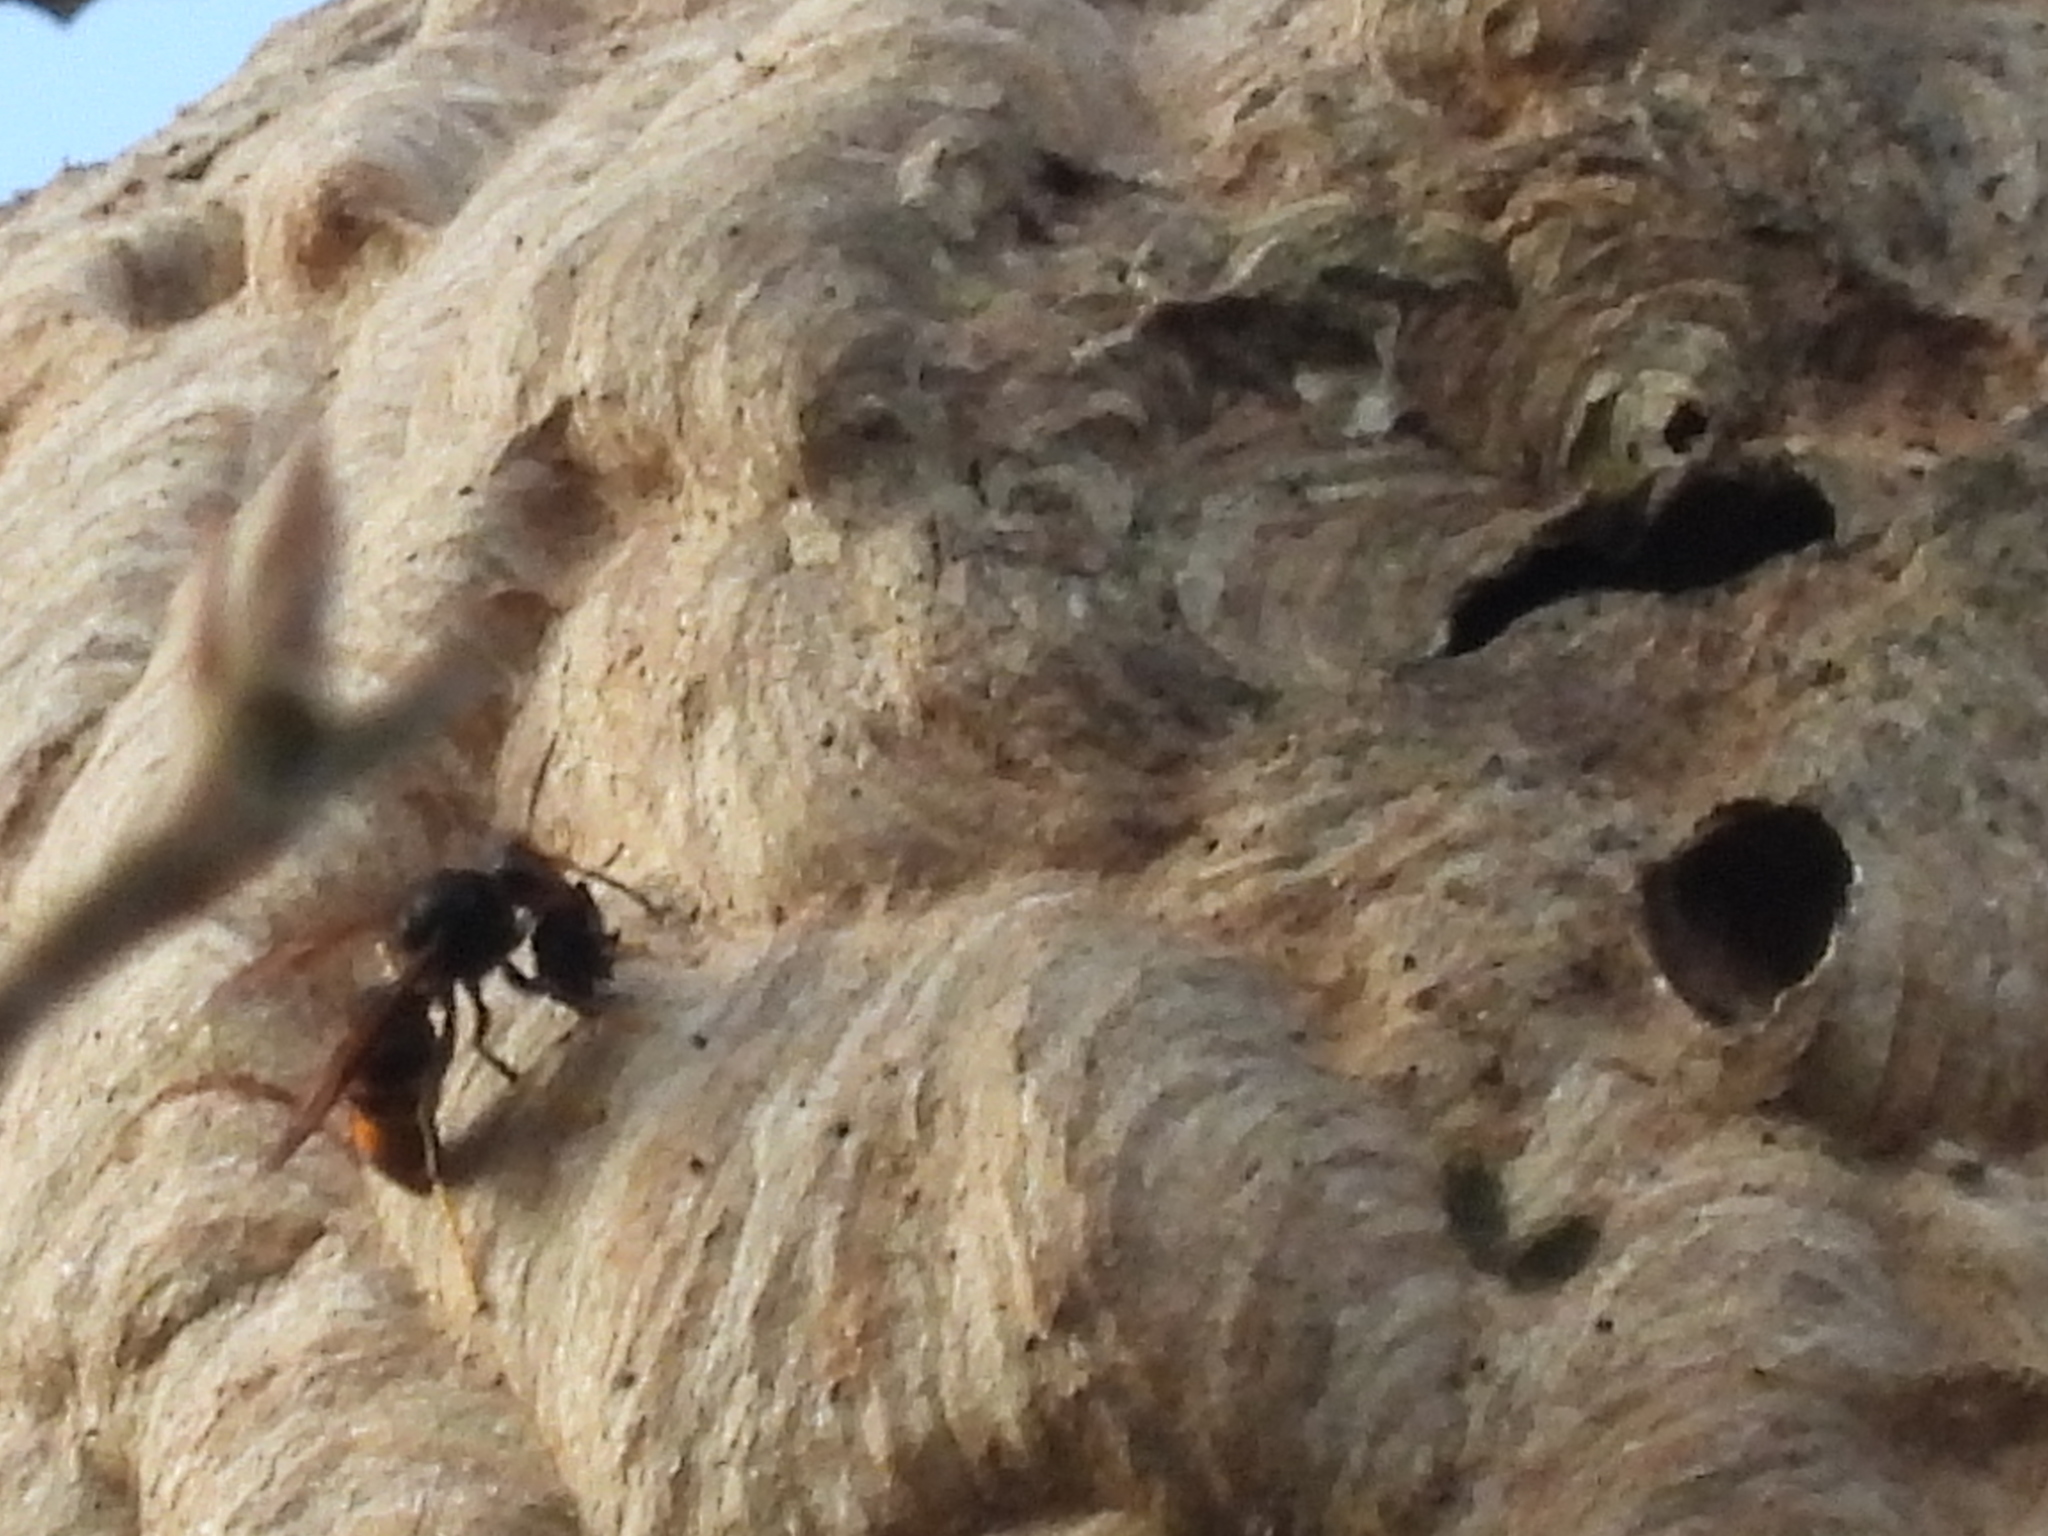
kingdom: Animalia
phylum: Arthropoda
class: Insecta
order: Hymenoptera
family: Vespidae
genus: Vespa
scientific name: Vespa velutina
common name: Asian hornet
